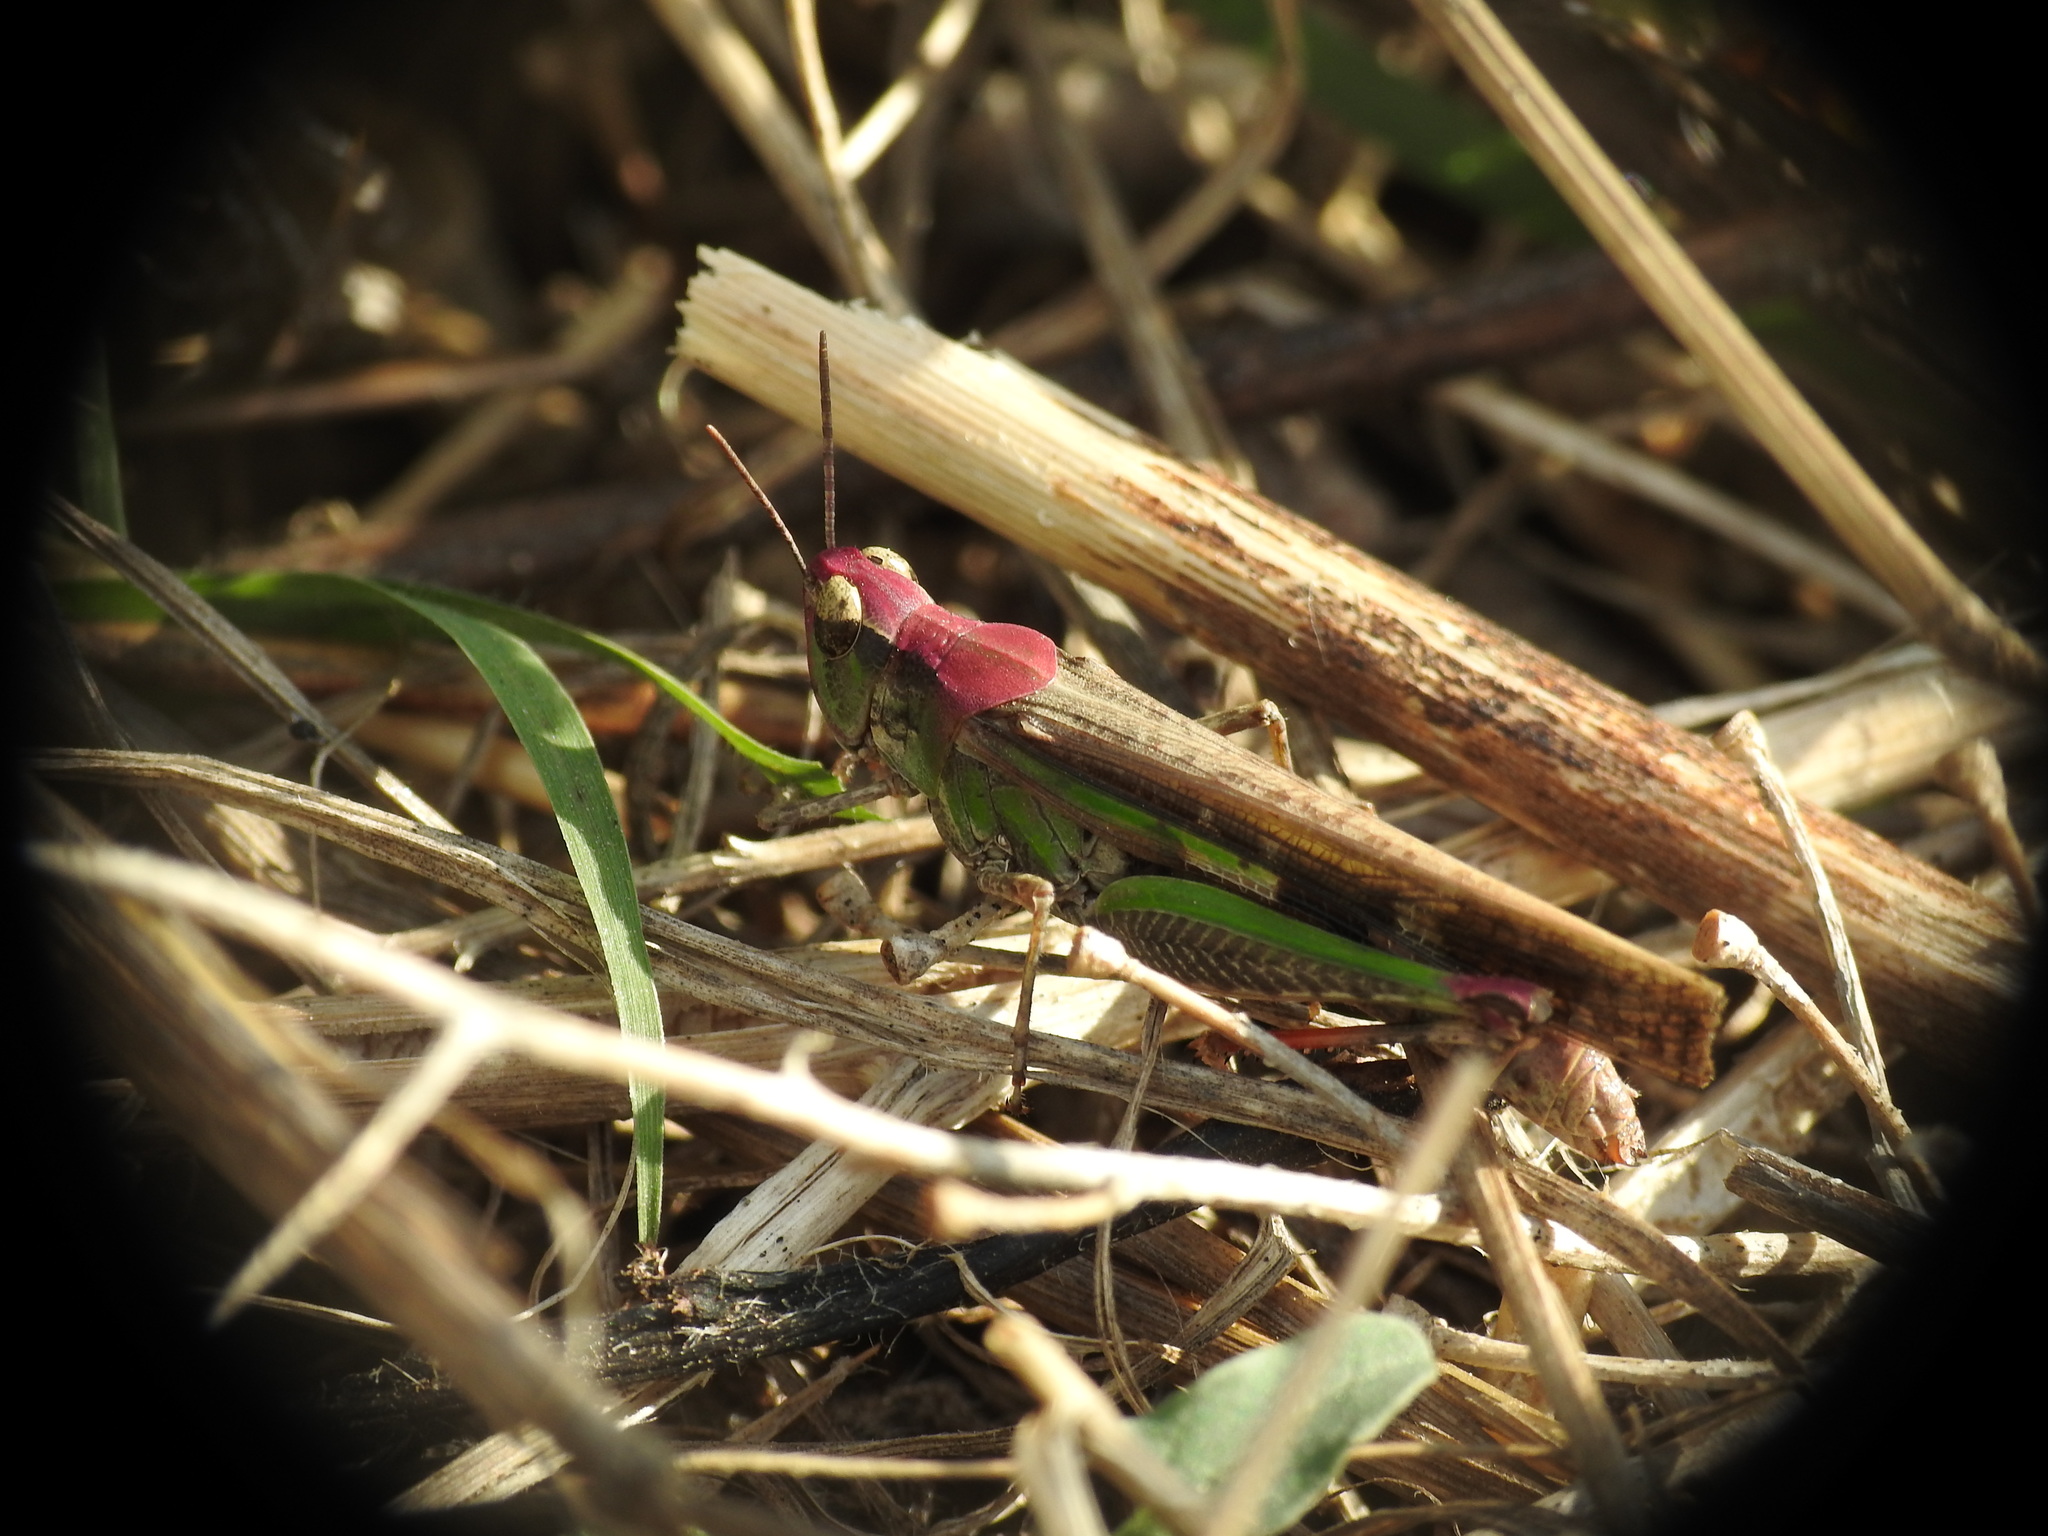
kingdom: Animalia
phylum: Arthropoda
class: Insecta
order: Orthoptera
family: Acrididae
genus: Aiolopus
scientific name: Aiolopus puissanti
